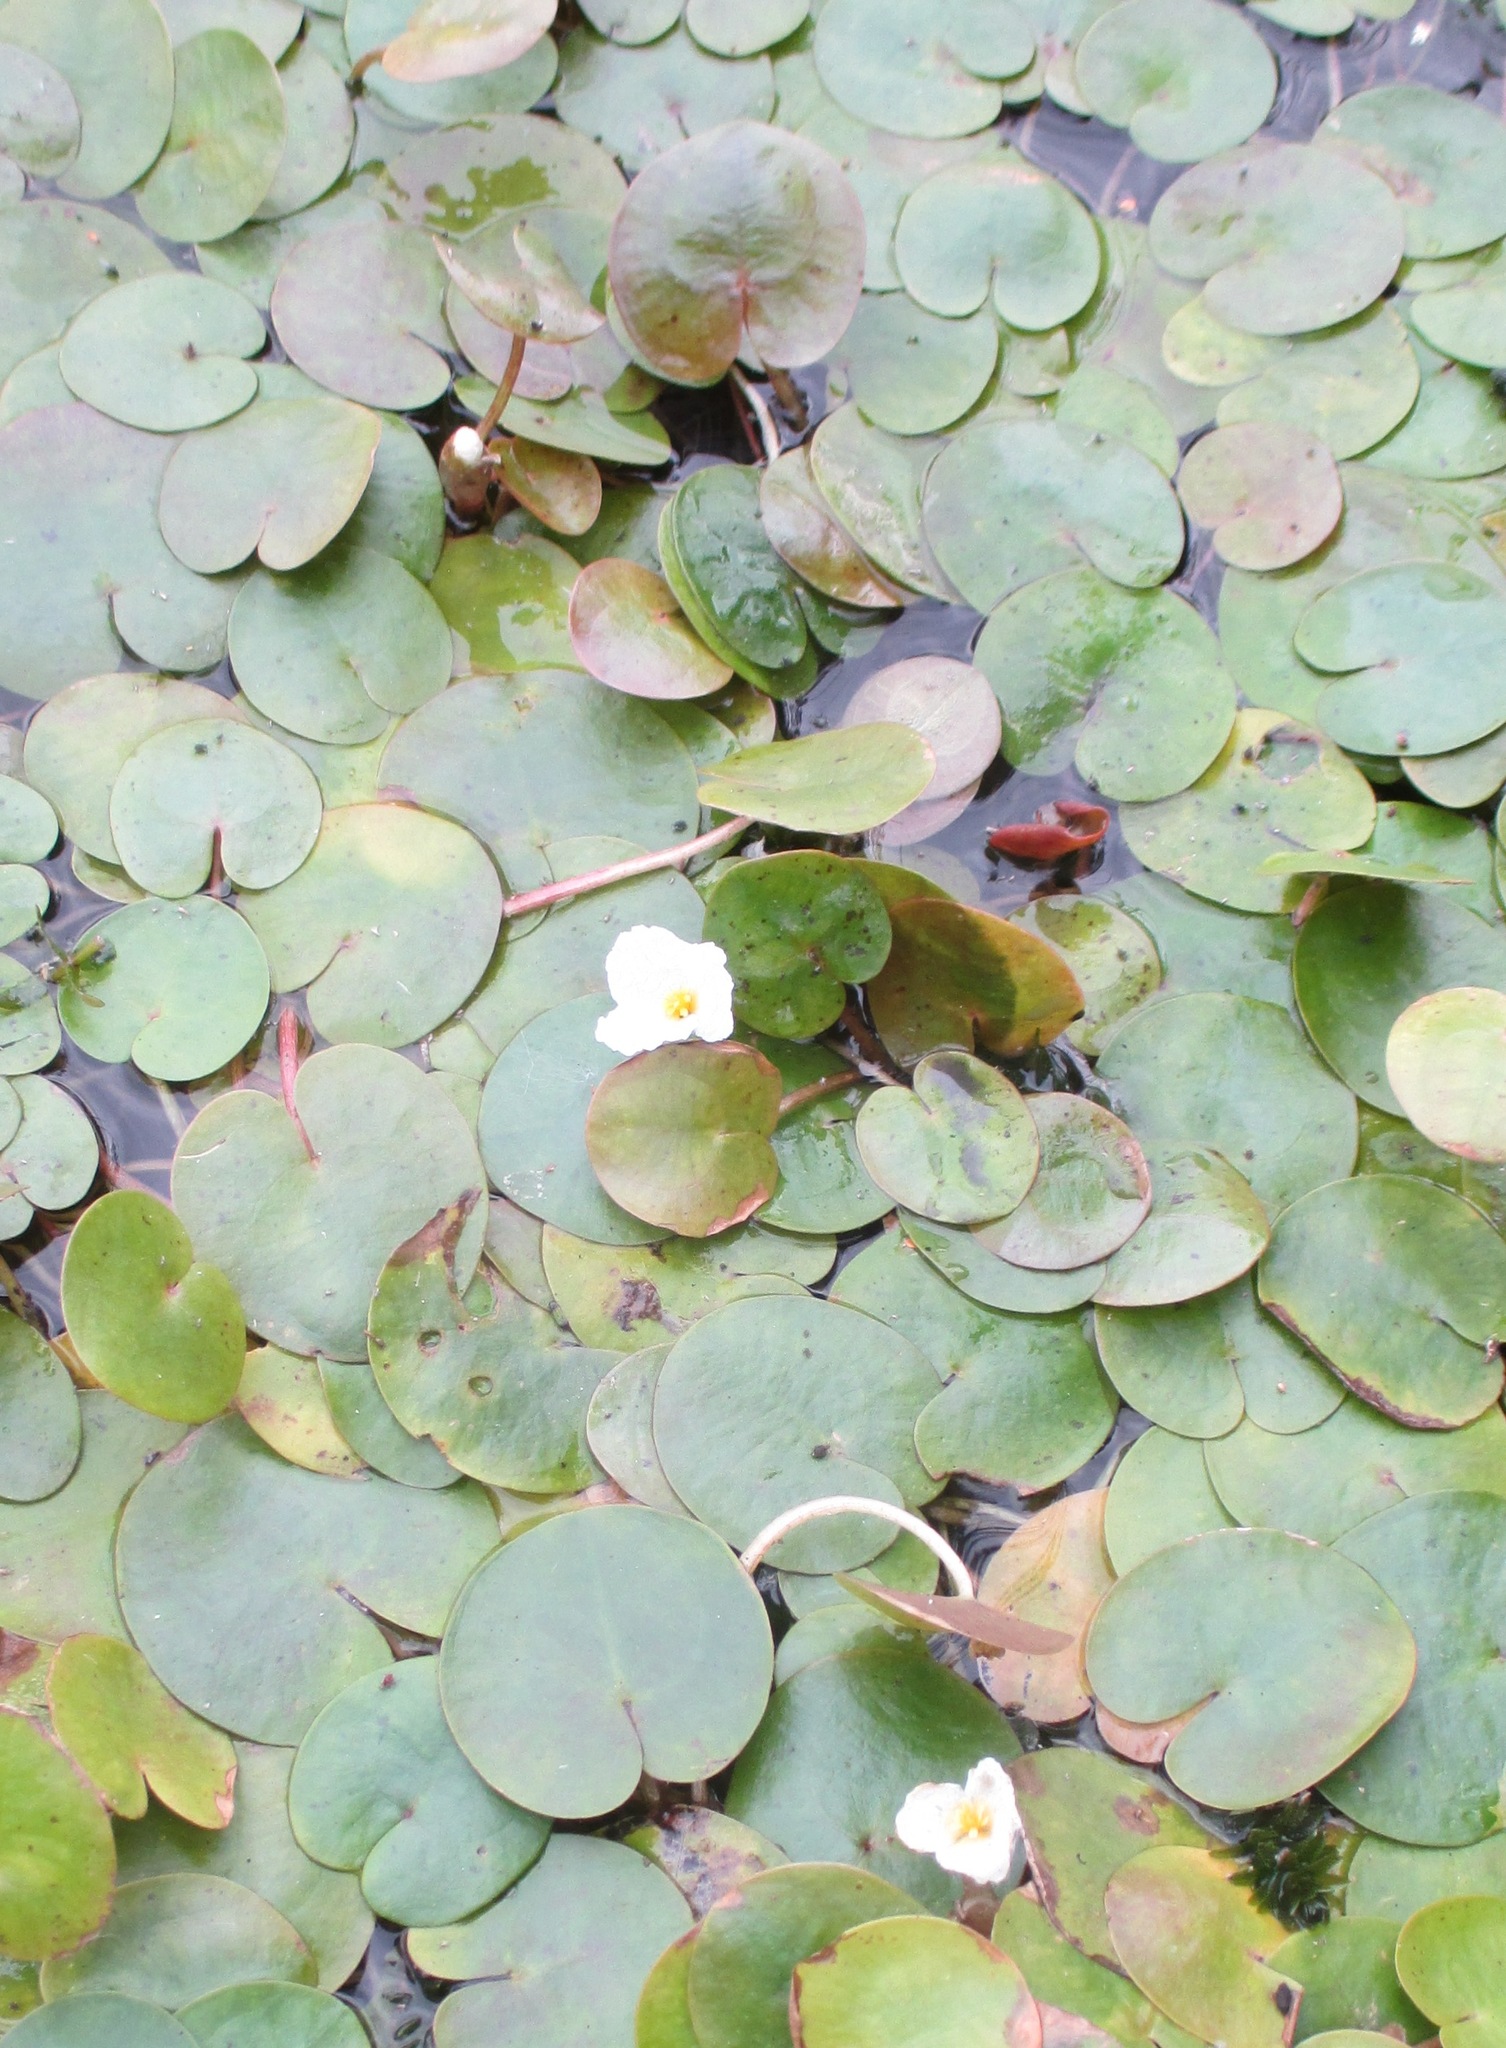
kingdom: Plantae
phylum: Tracheophyta
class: Liliopsida
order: Alismatales
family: Hydrocharitaceae
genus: Hydrocharis
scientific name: Hydrocharis morsus-ranae
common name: Frogbit
